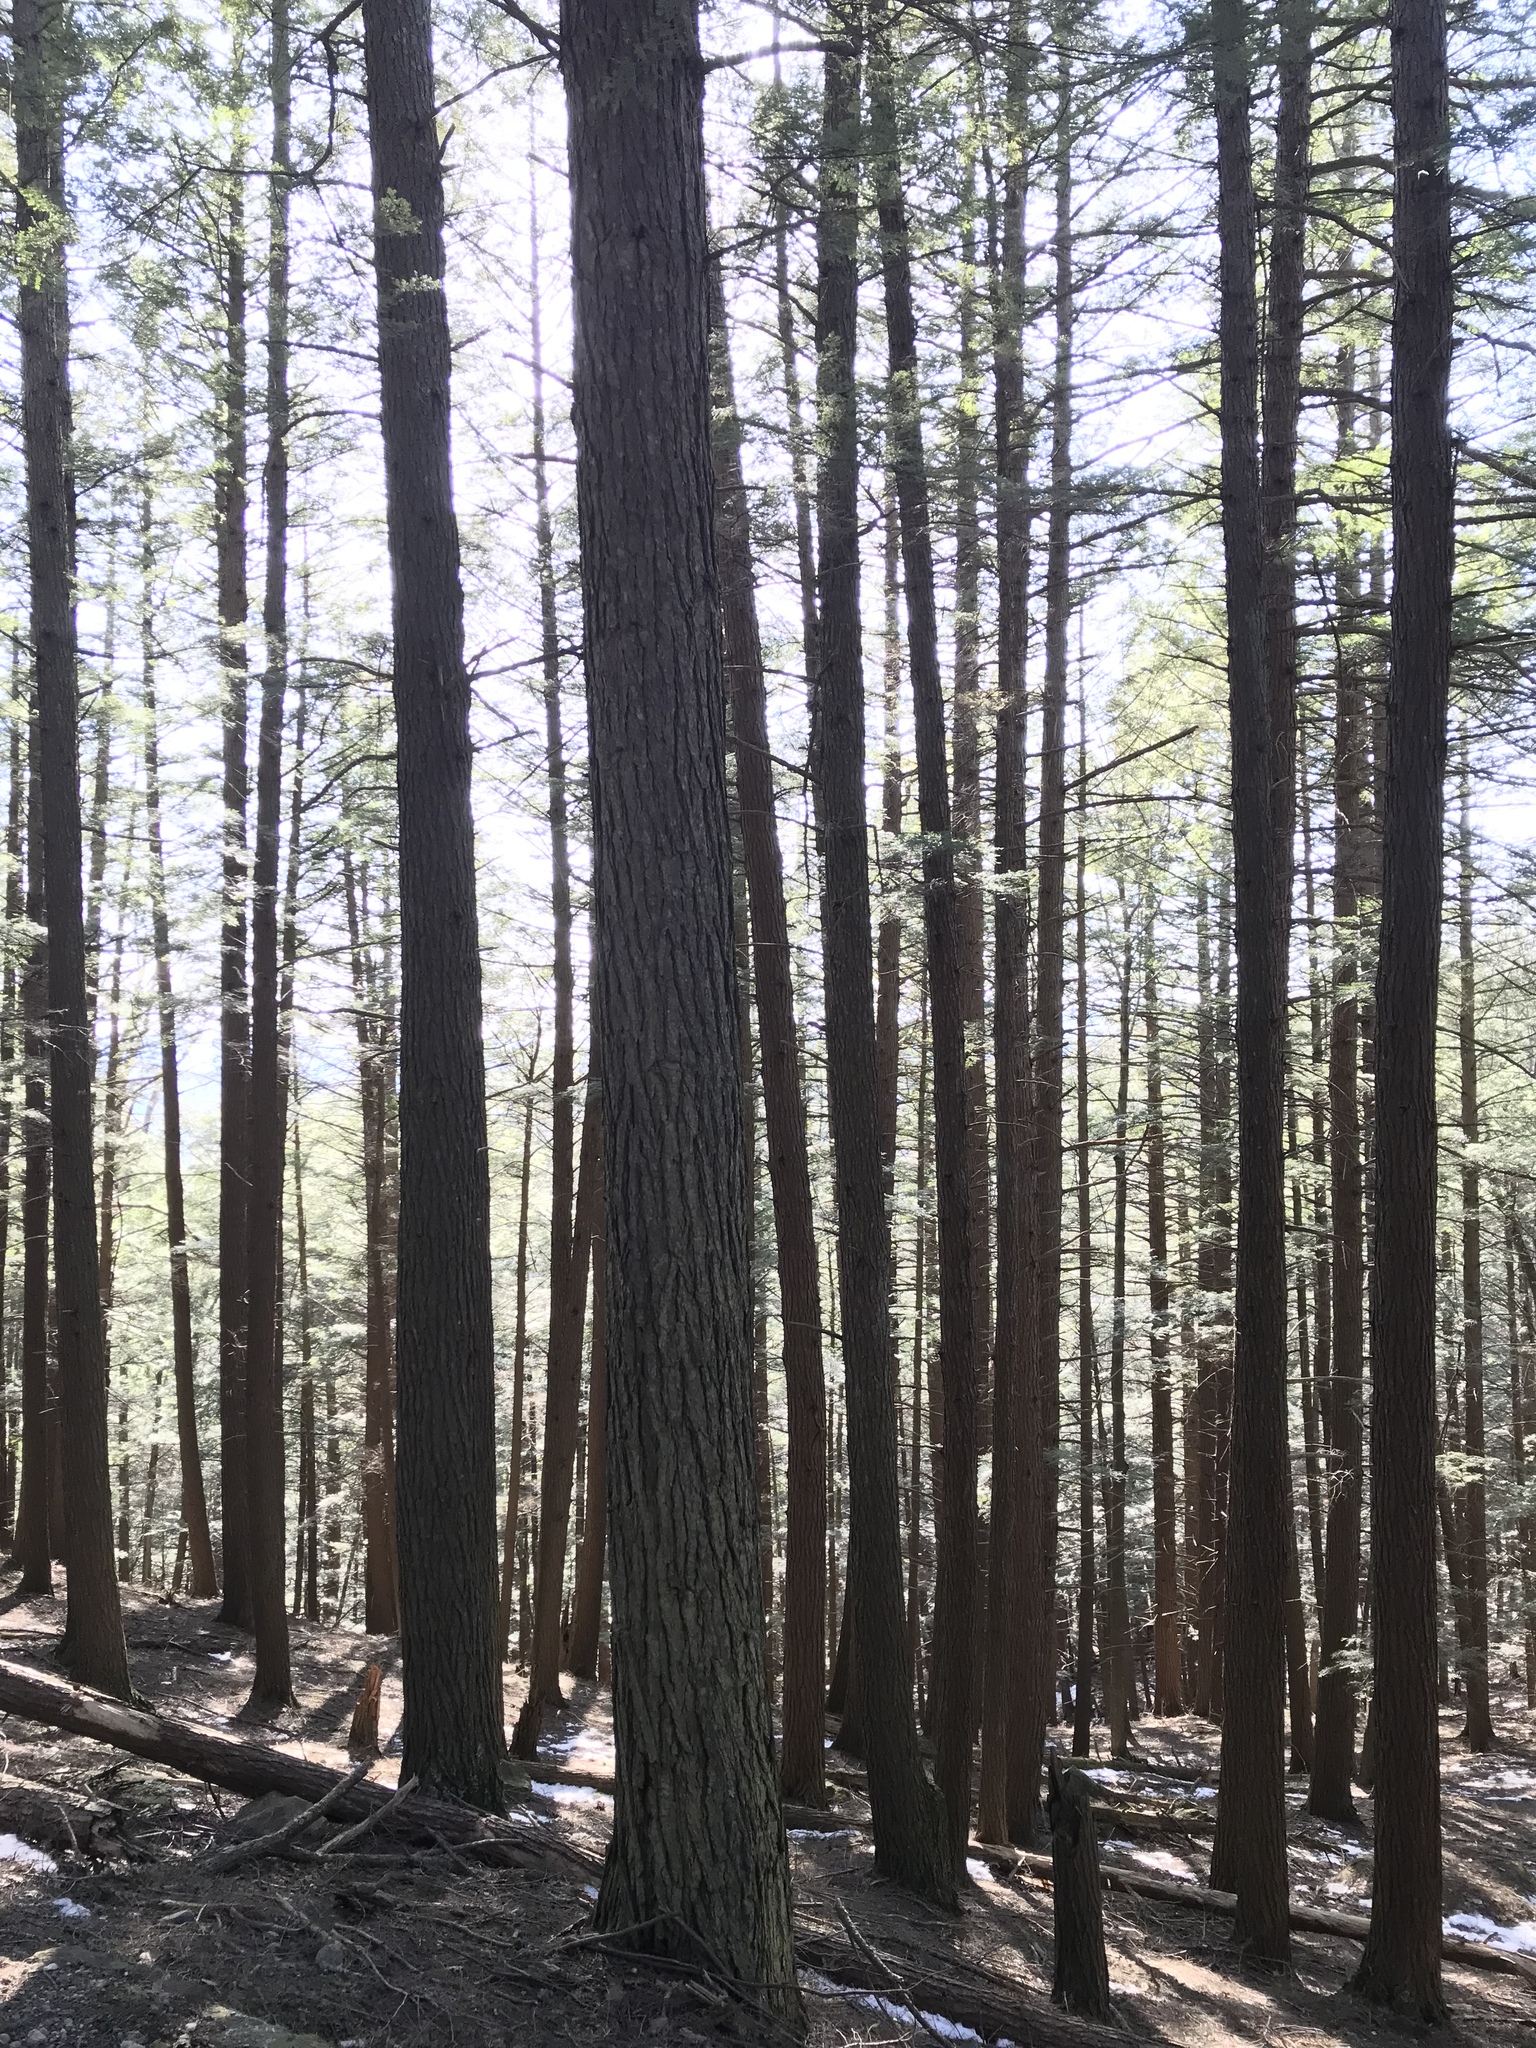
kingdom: Plantae
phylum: Tracheophyta
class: Pinopsida
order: Pinales
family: Pinaceae
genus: Tsuga
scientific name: Tsuga canadensis
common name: Eastern hemlock
